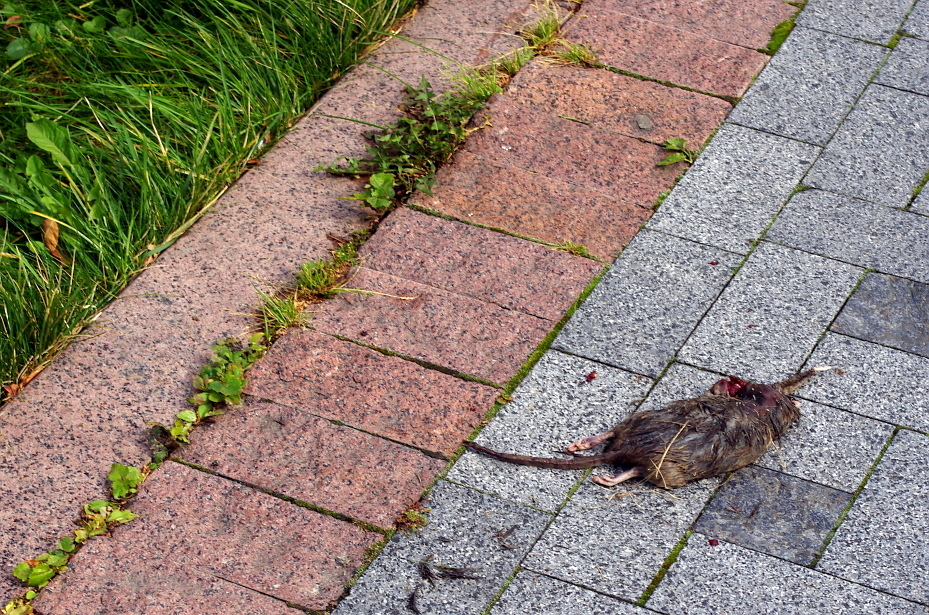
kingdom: Animalia
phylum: Chordata
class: Mammalia
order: Rodentia
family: Muridae
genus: Rattus
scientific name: Rattus norvegicus
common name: Brown rat
